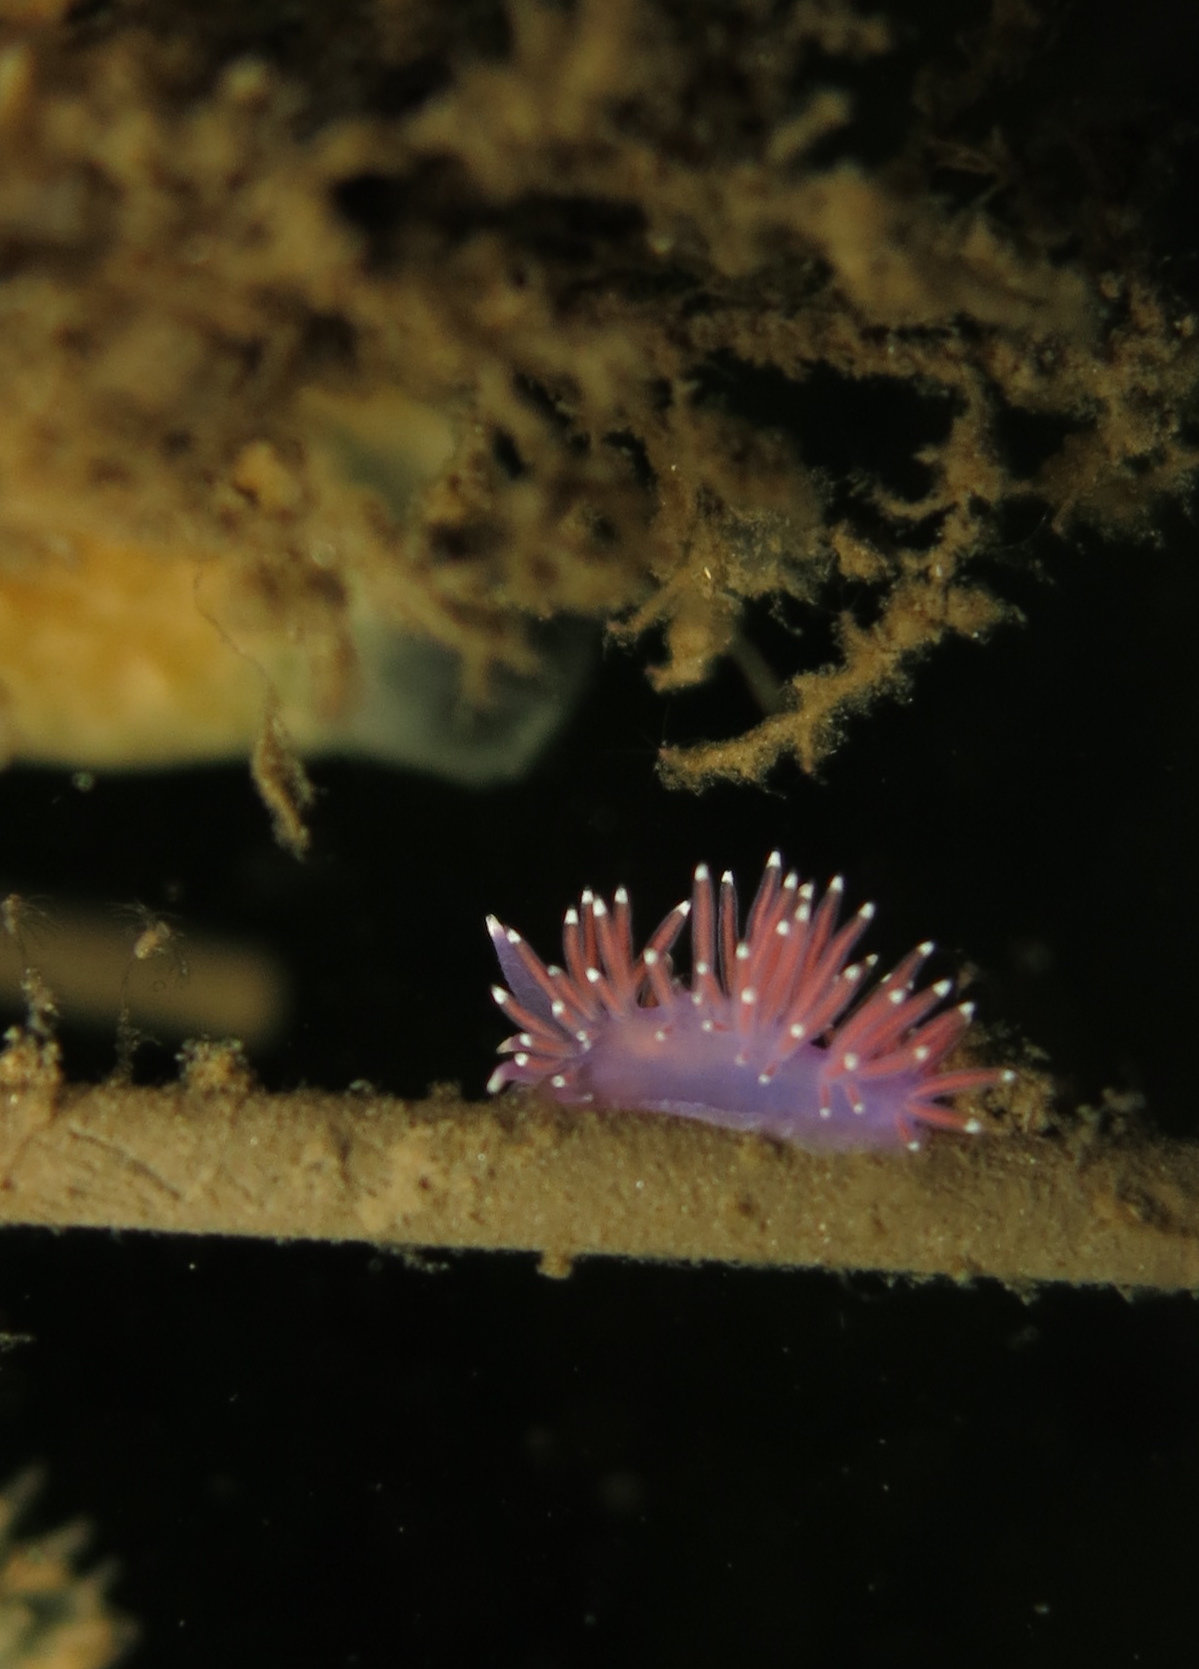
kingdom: Animalia
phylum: Mollusca
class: Gastropoda
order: Nudibranchia
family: Flabellinidae
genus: Edmundsella
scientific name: Edmundsella pedata
